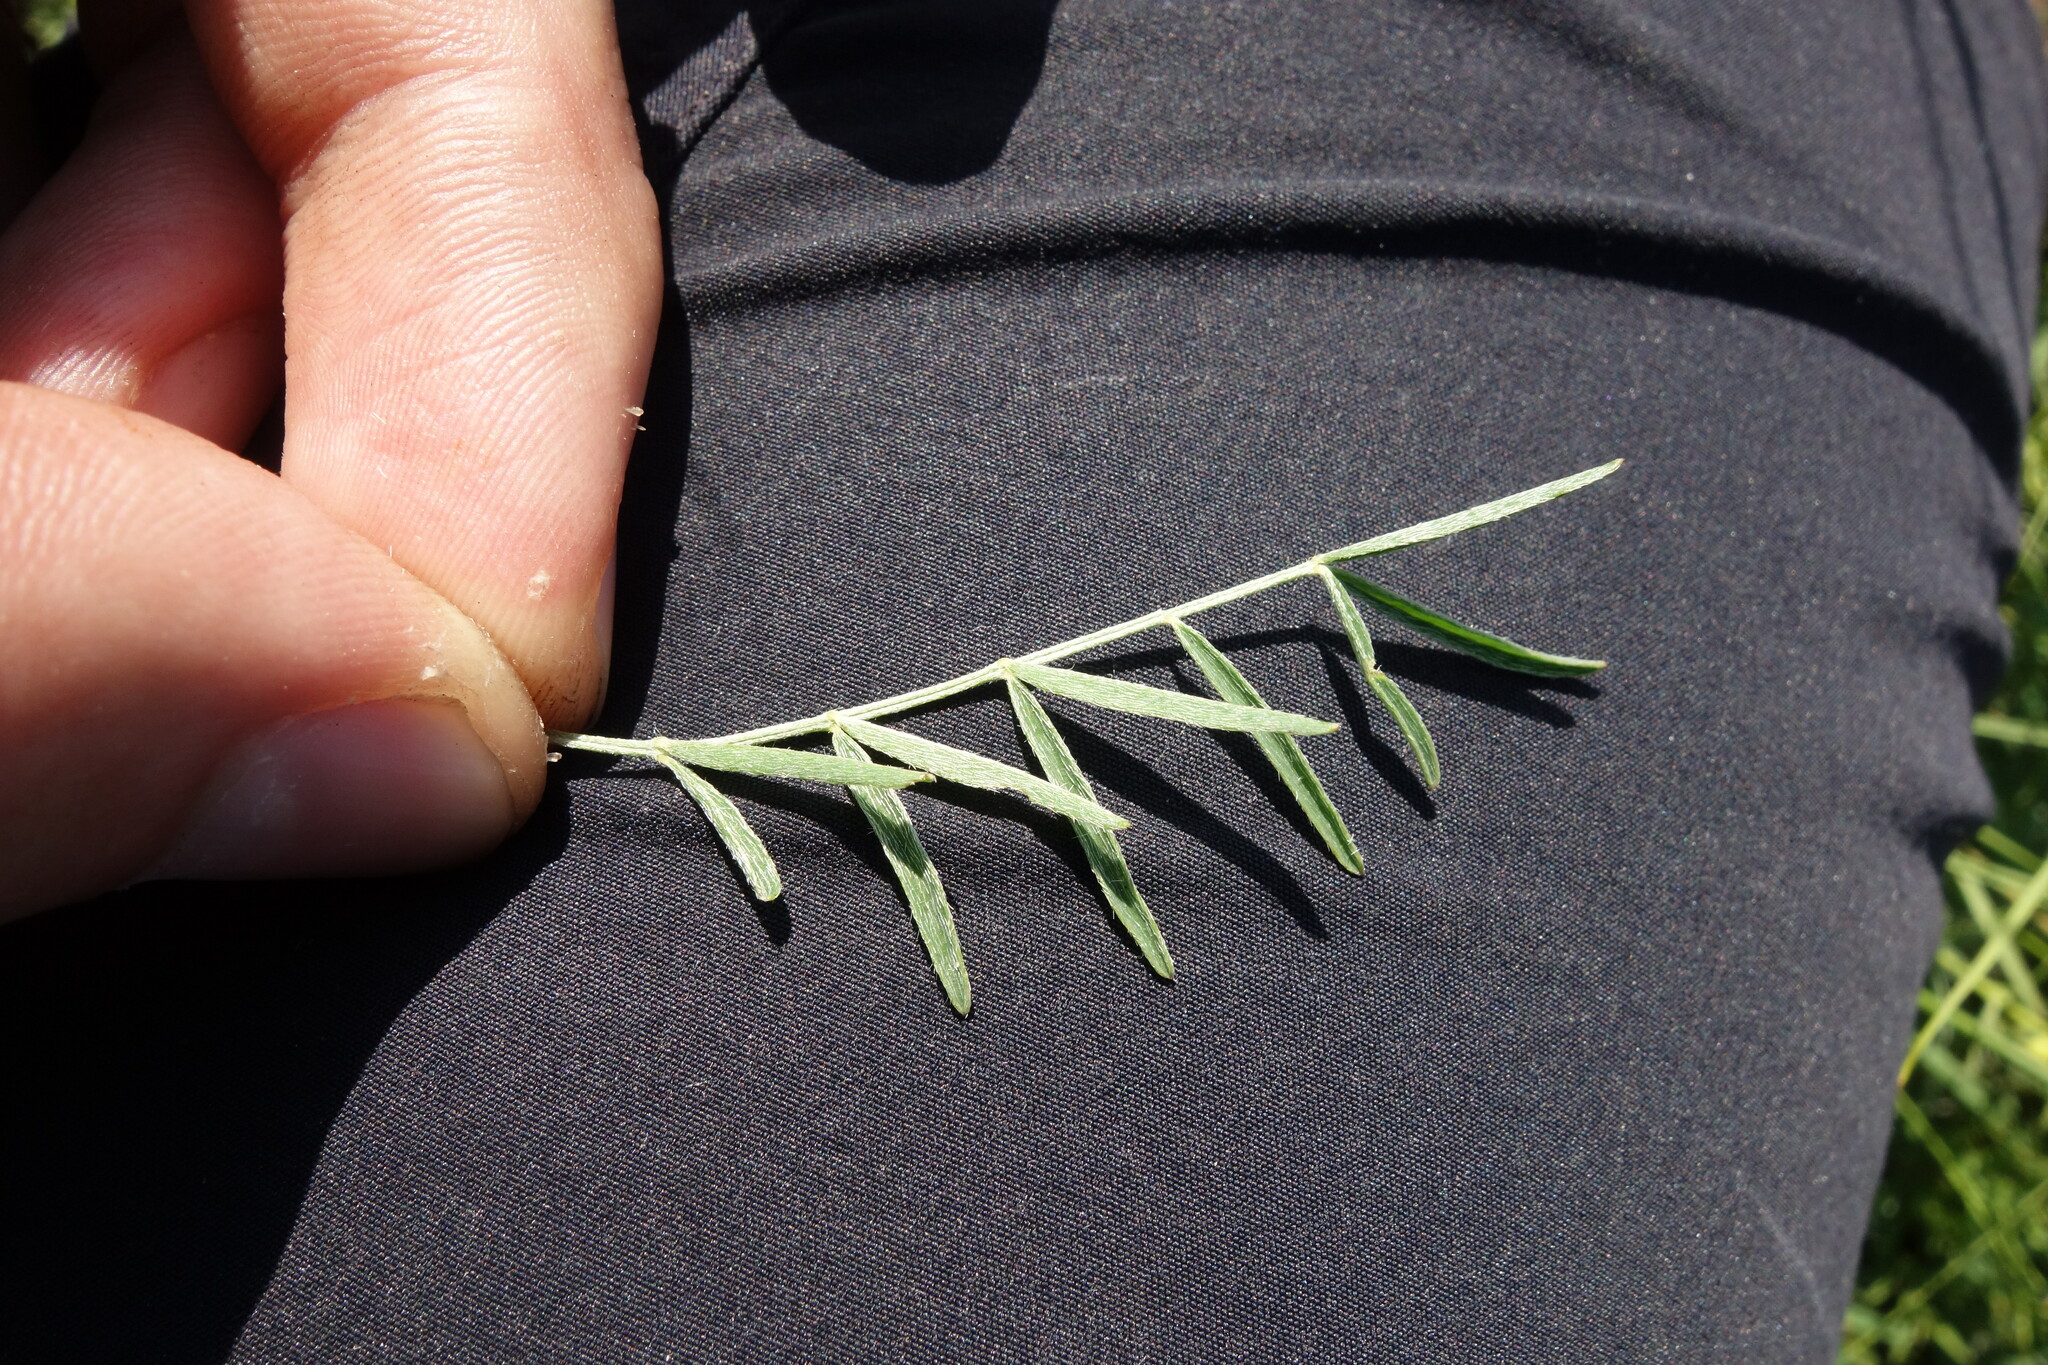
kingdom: Plantae
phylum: Tracheophyta
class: Magnoliopsida
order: Fabales
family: Fabaceae
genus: Astragalus
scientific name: Astragalus varius
